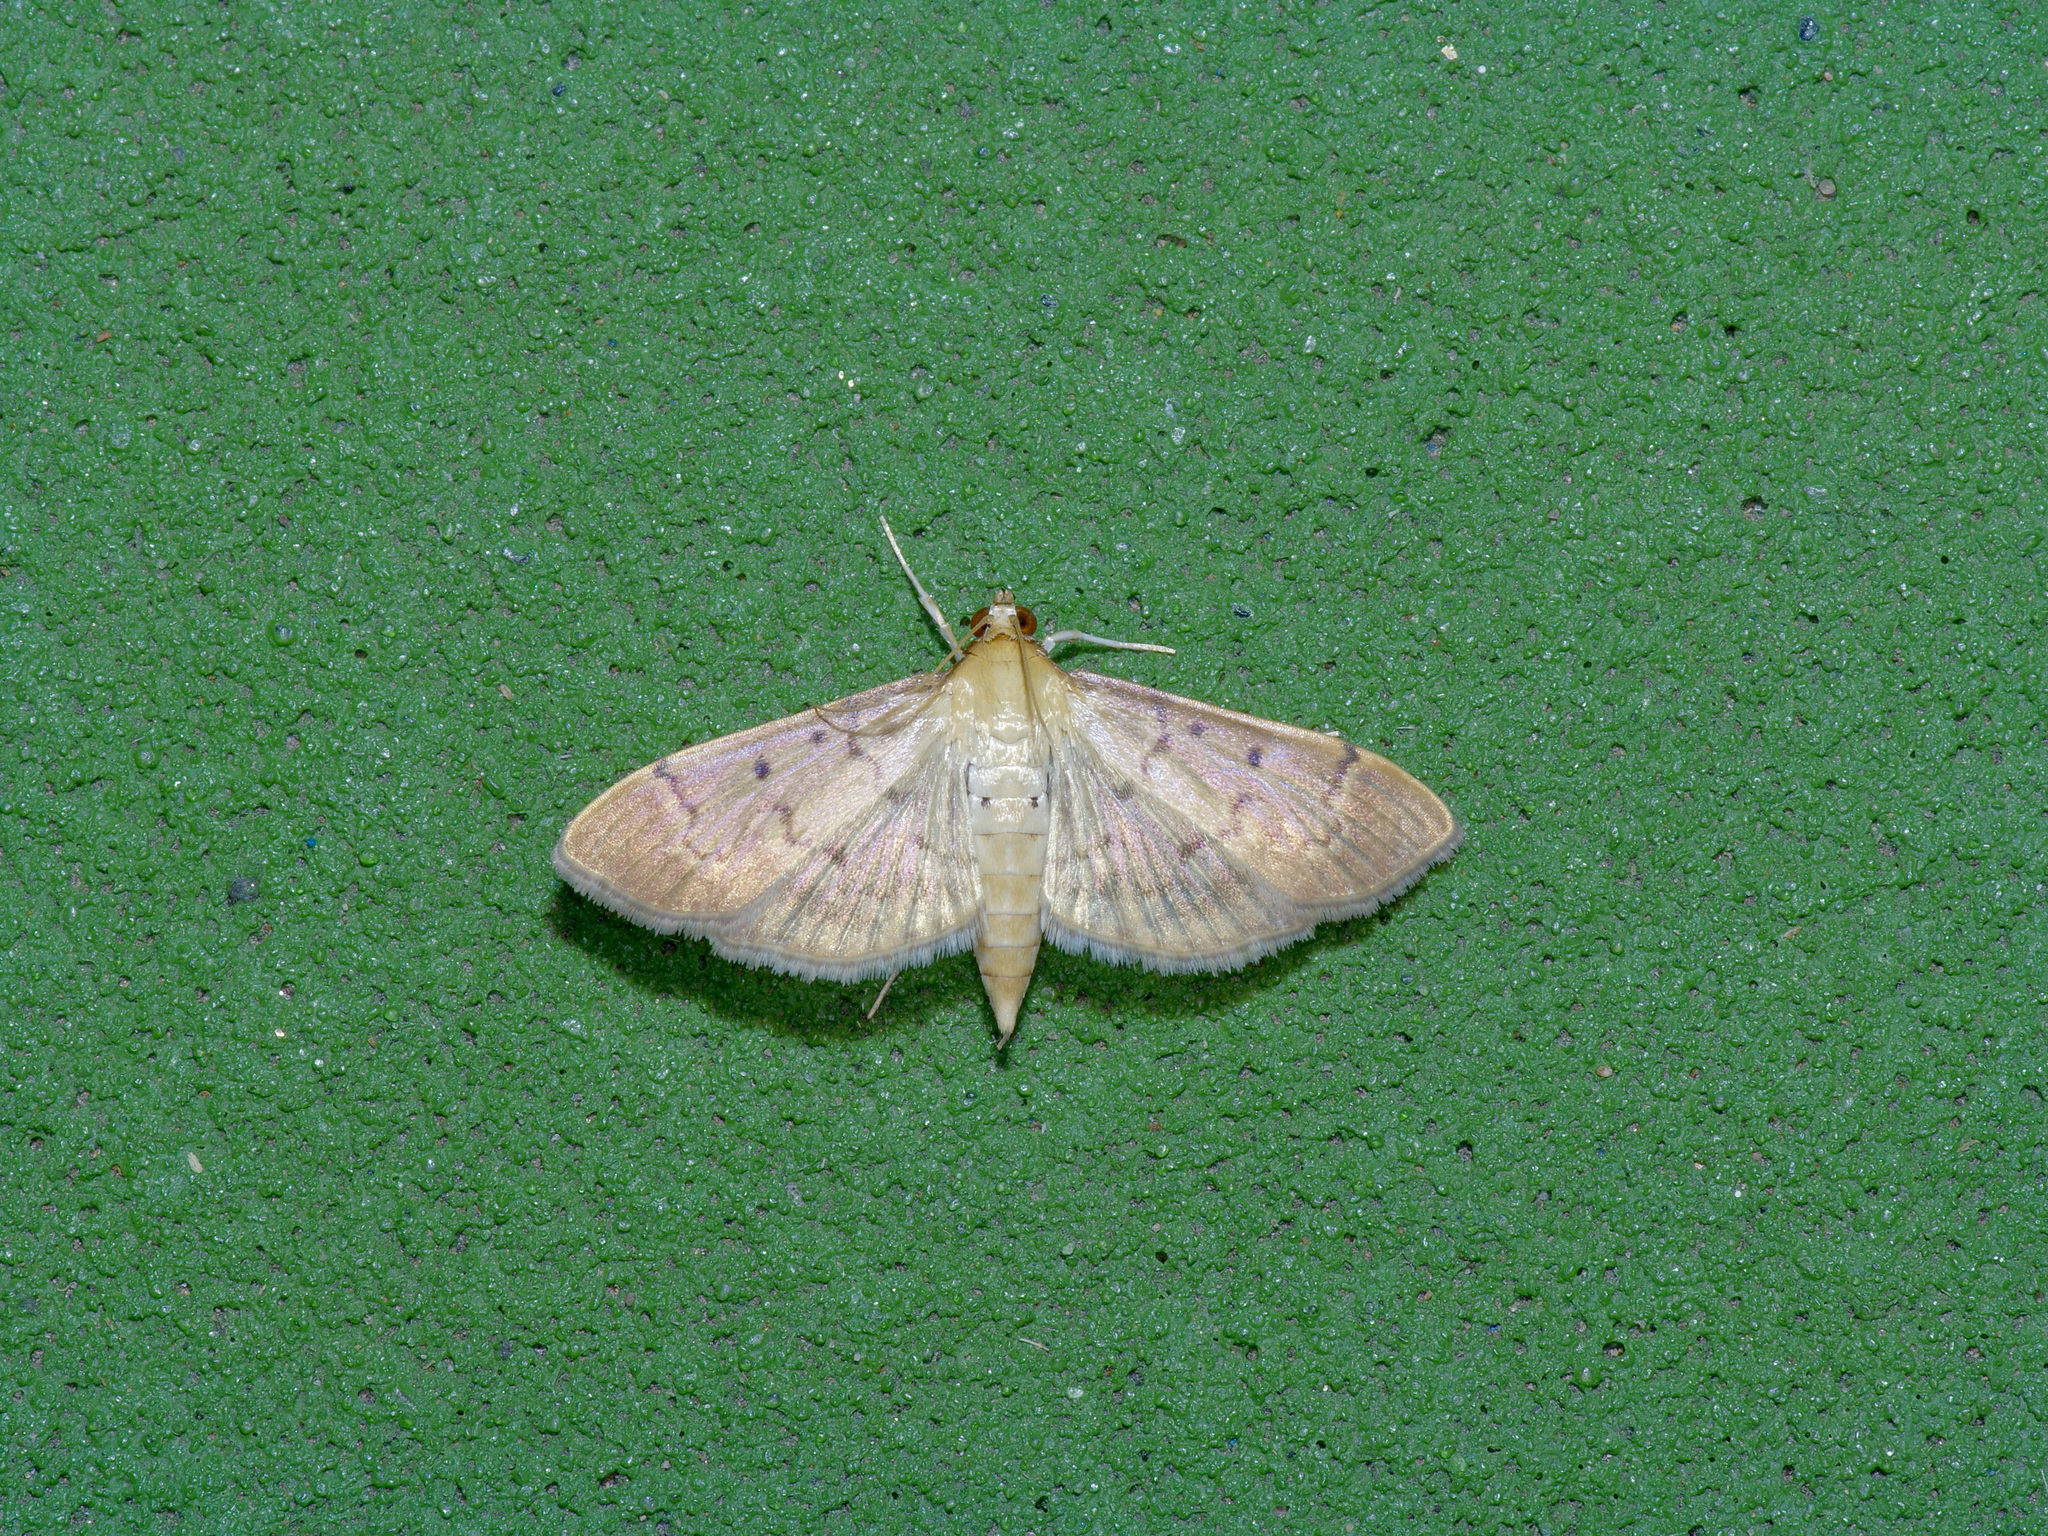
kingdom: Animalia
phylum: Arthropoda
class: Insecta
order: Lepidoptera
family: Crambidae
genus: Herpetogramma
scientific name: Herpetogramma bipunctalis
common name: Southern beet webworm
